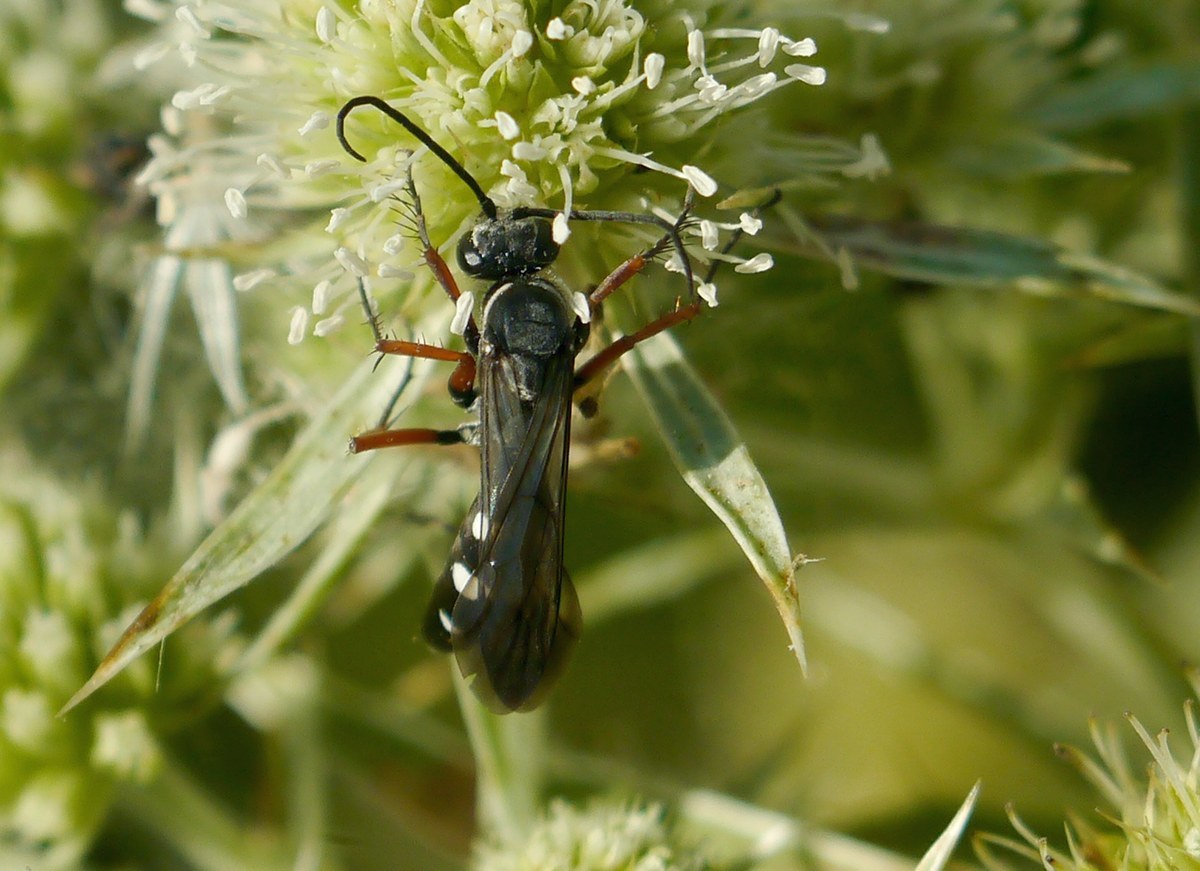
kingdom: Animalia
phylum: Arthropoda
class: Insecta
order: Hymenoptera
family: Pompilidae
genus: Episyron
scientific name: Episyron rufipes
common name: Red legged spider wasp
